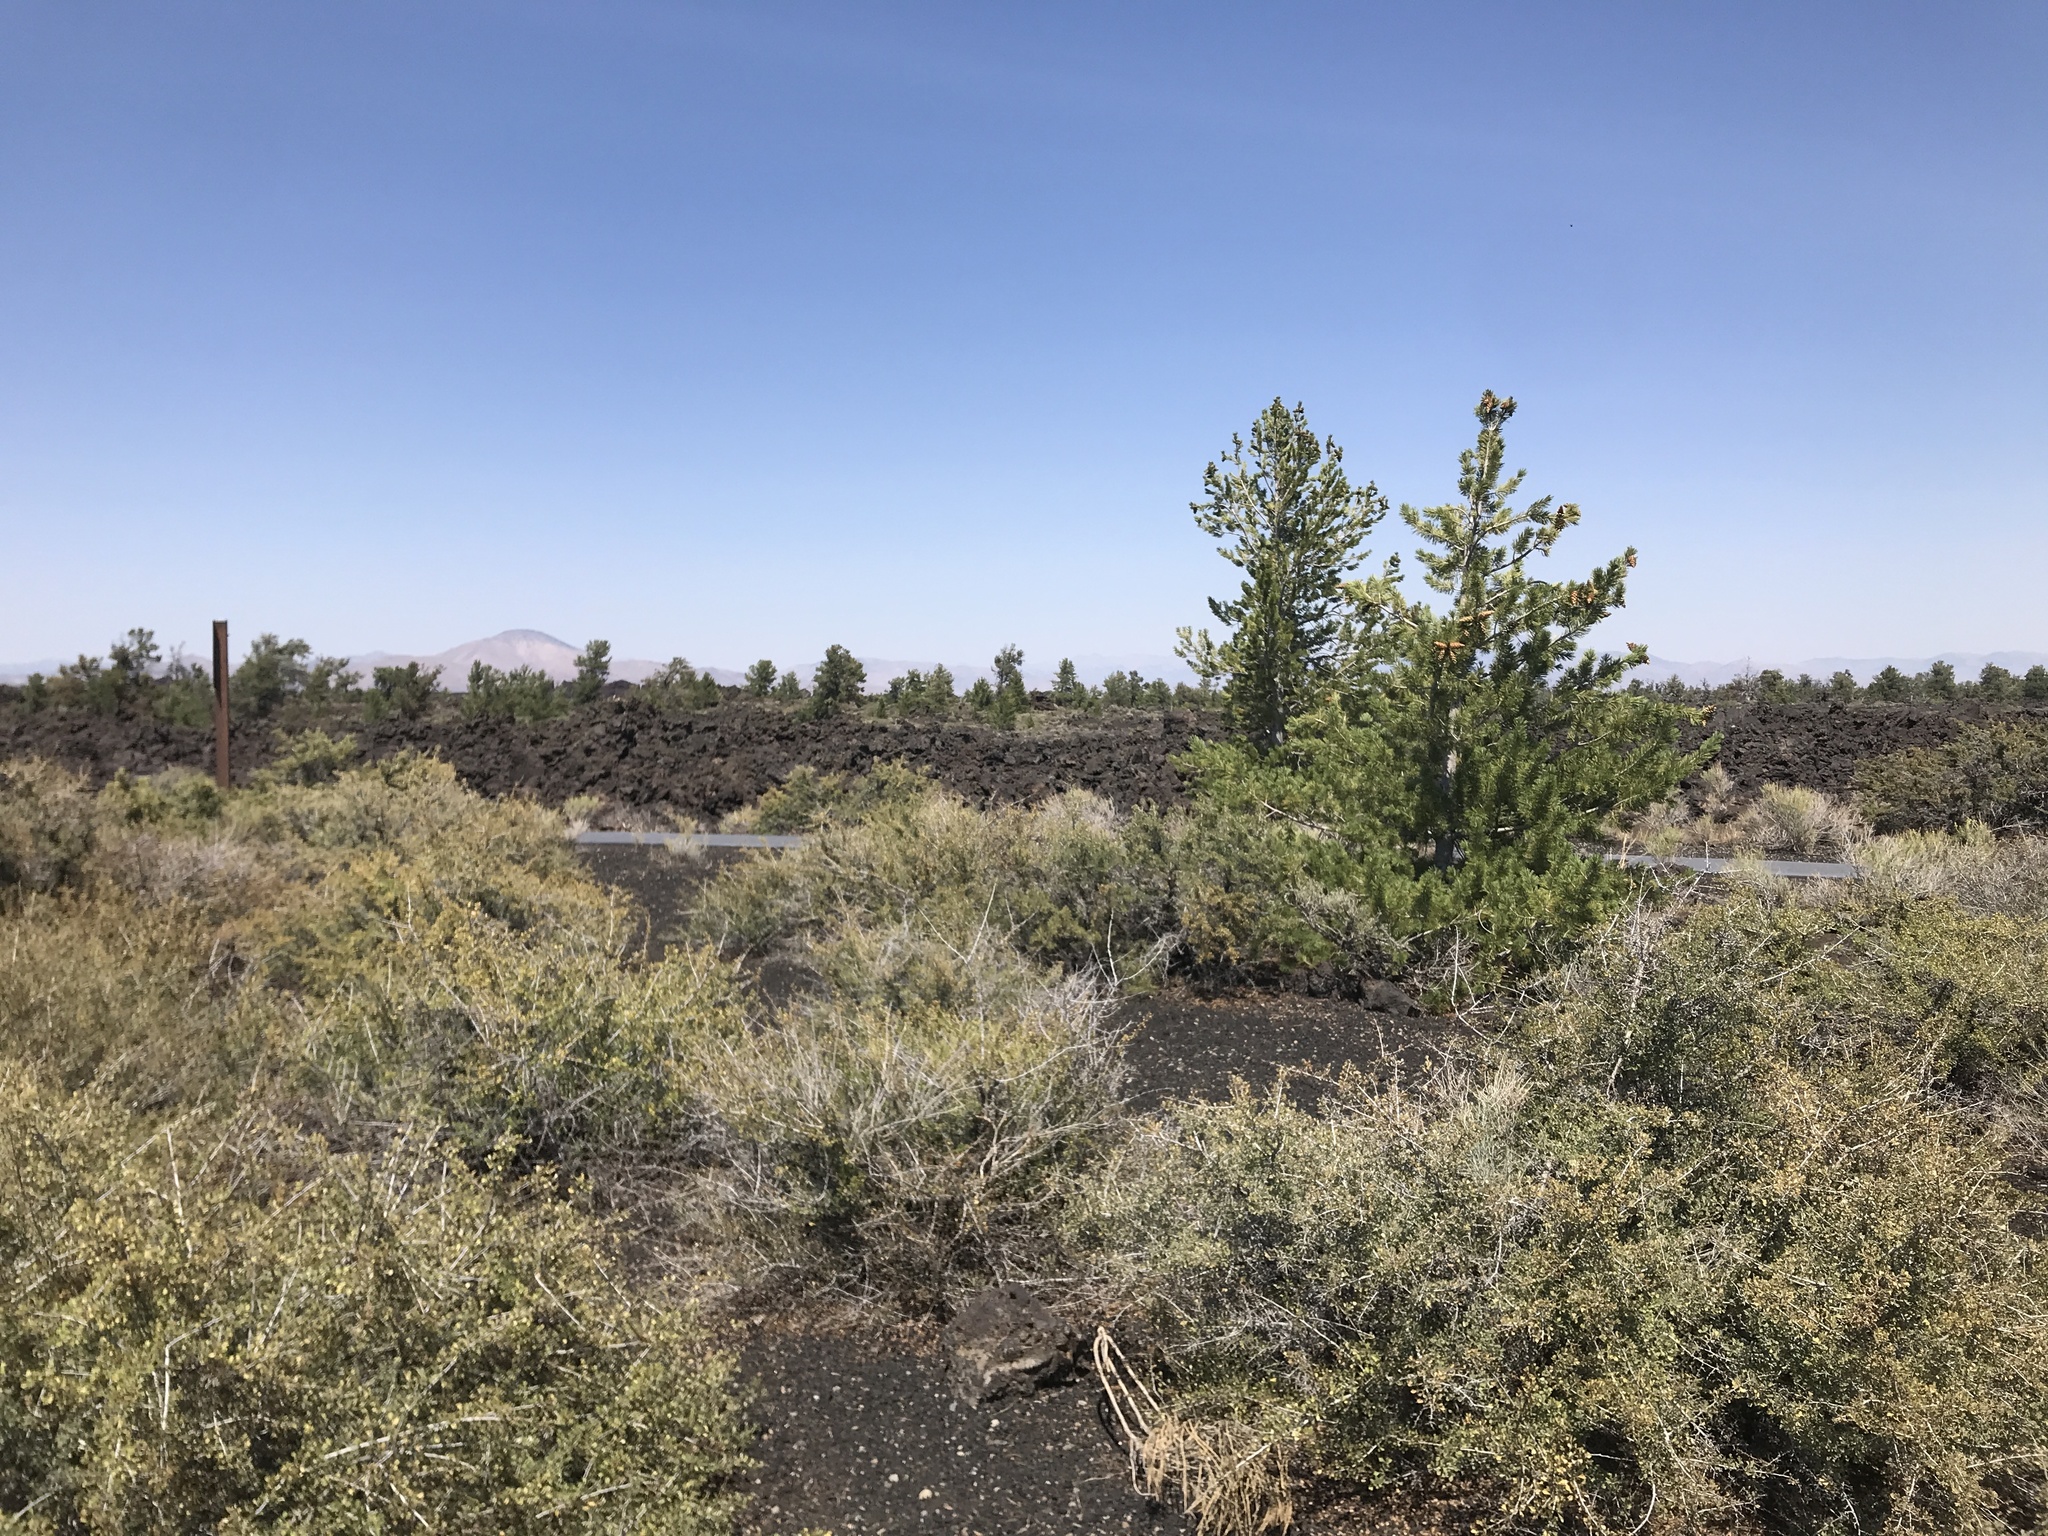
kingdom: Plantae
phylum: Tracheophyta
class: Pinopsida
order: Pinales
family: Pinaceae
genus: Pinus
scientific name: Pinus flexilis
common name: Limber pine
